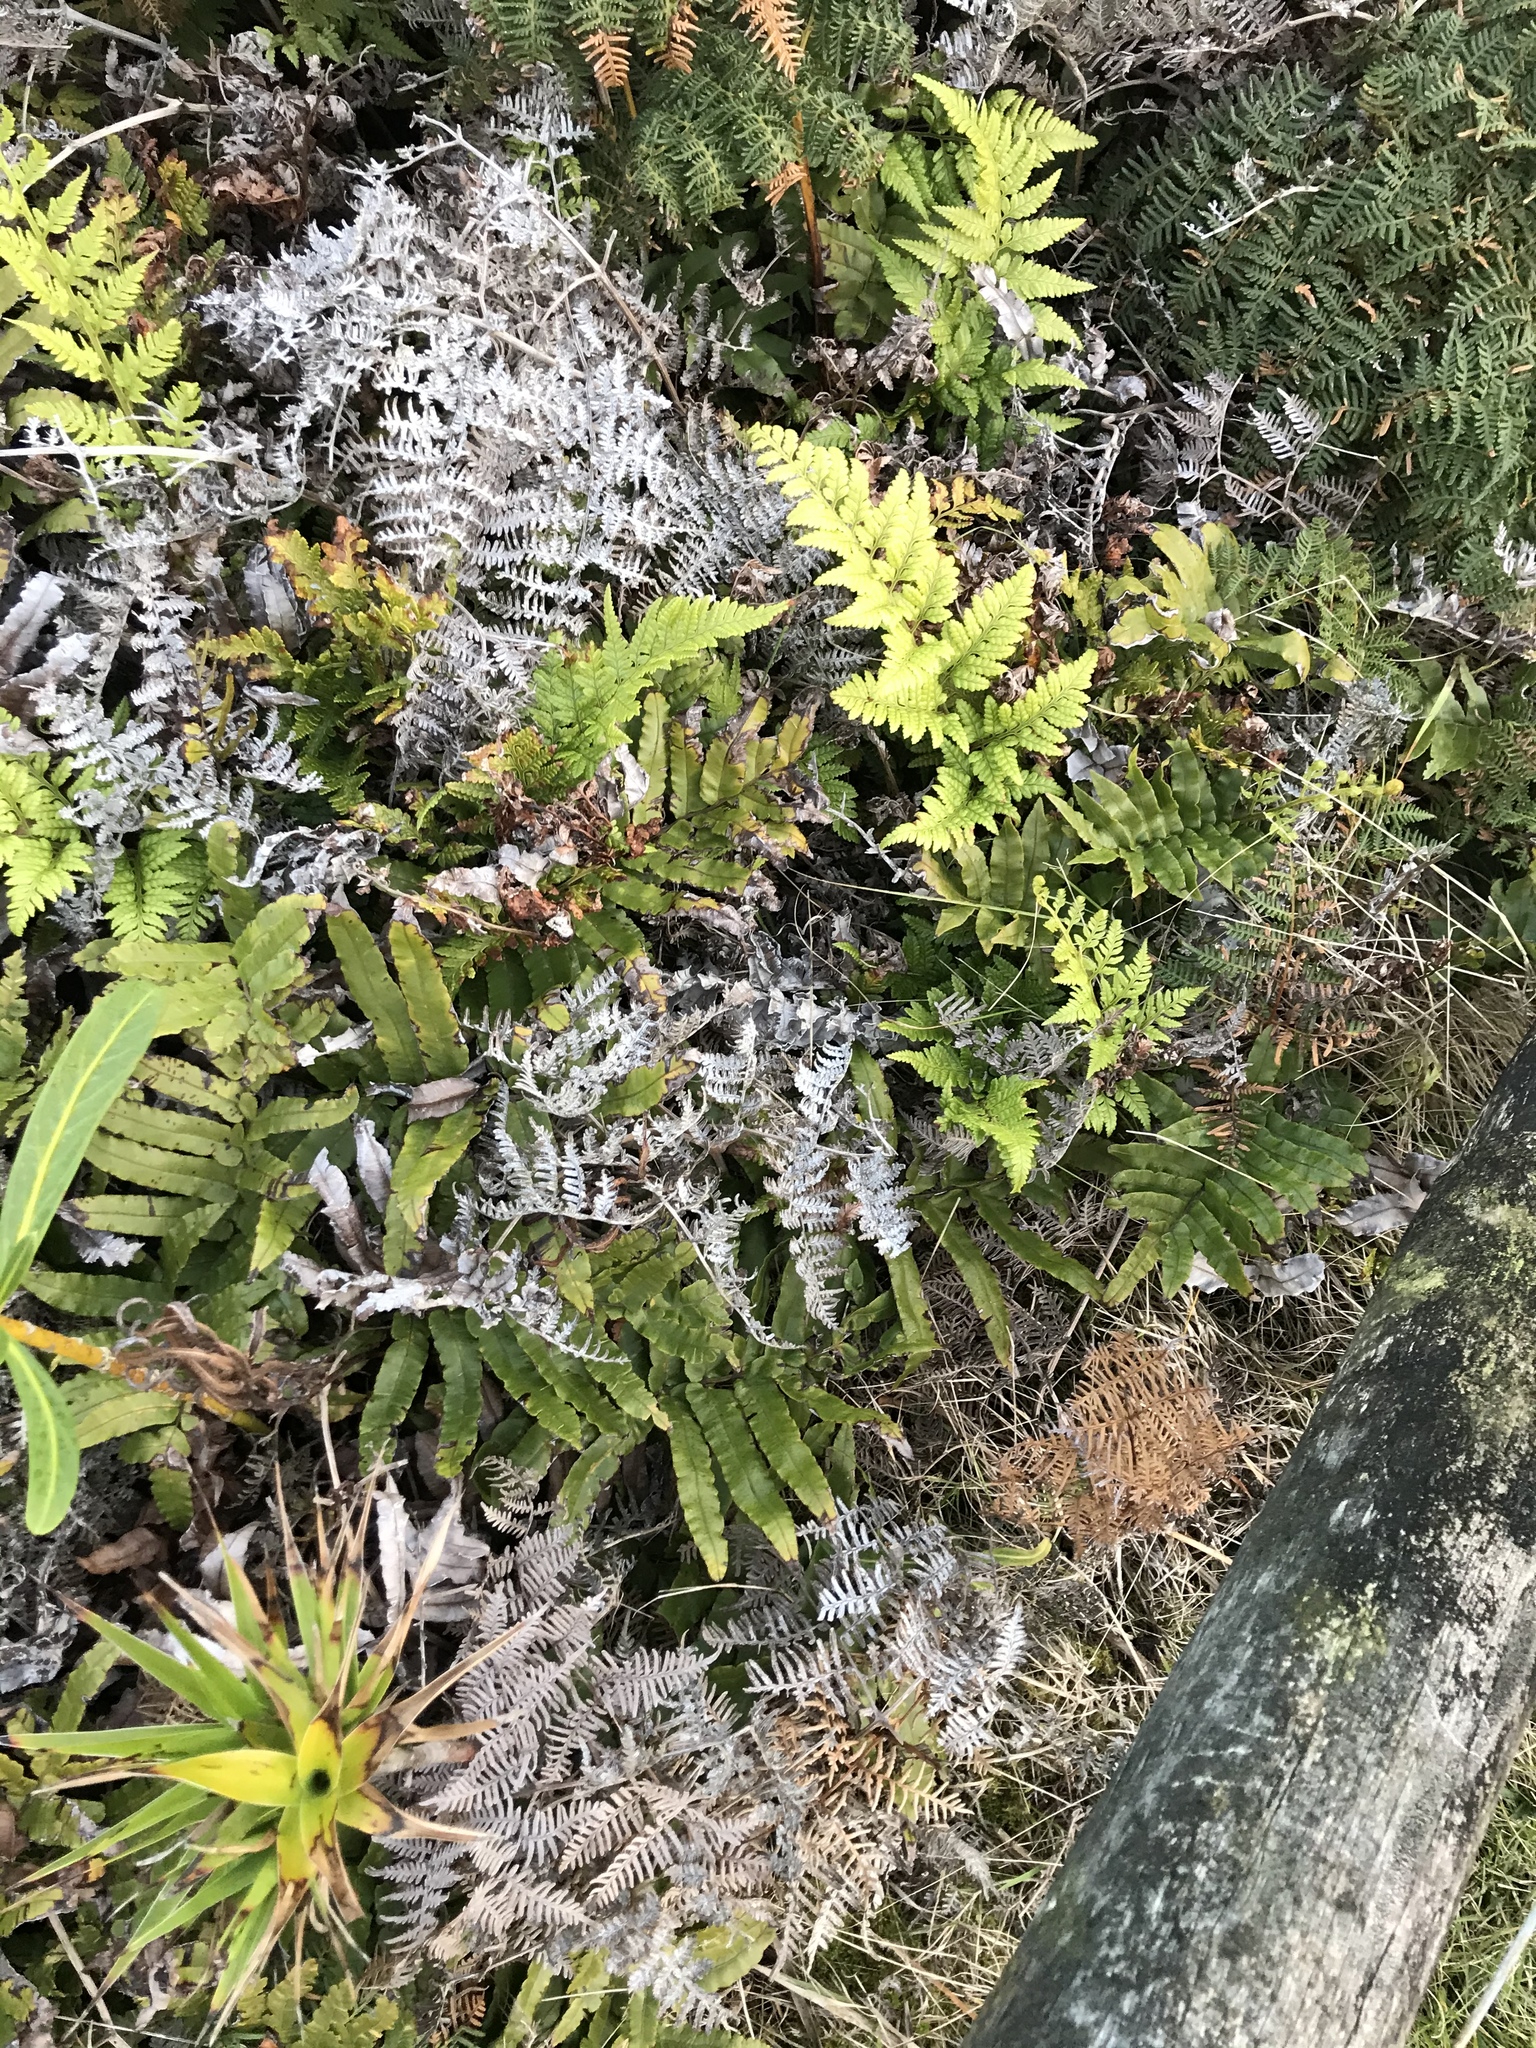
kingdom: Plantae
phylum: Tracheophyta
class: Polypodiopsida
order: Polypodiales
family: Dryopteridaceae
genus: Rumohra
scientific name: Rumohra adiantiformis
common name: Leather fern
